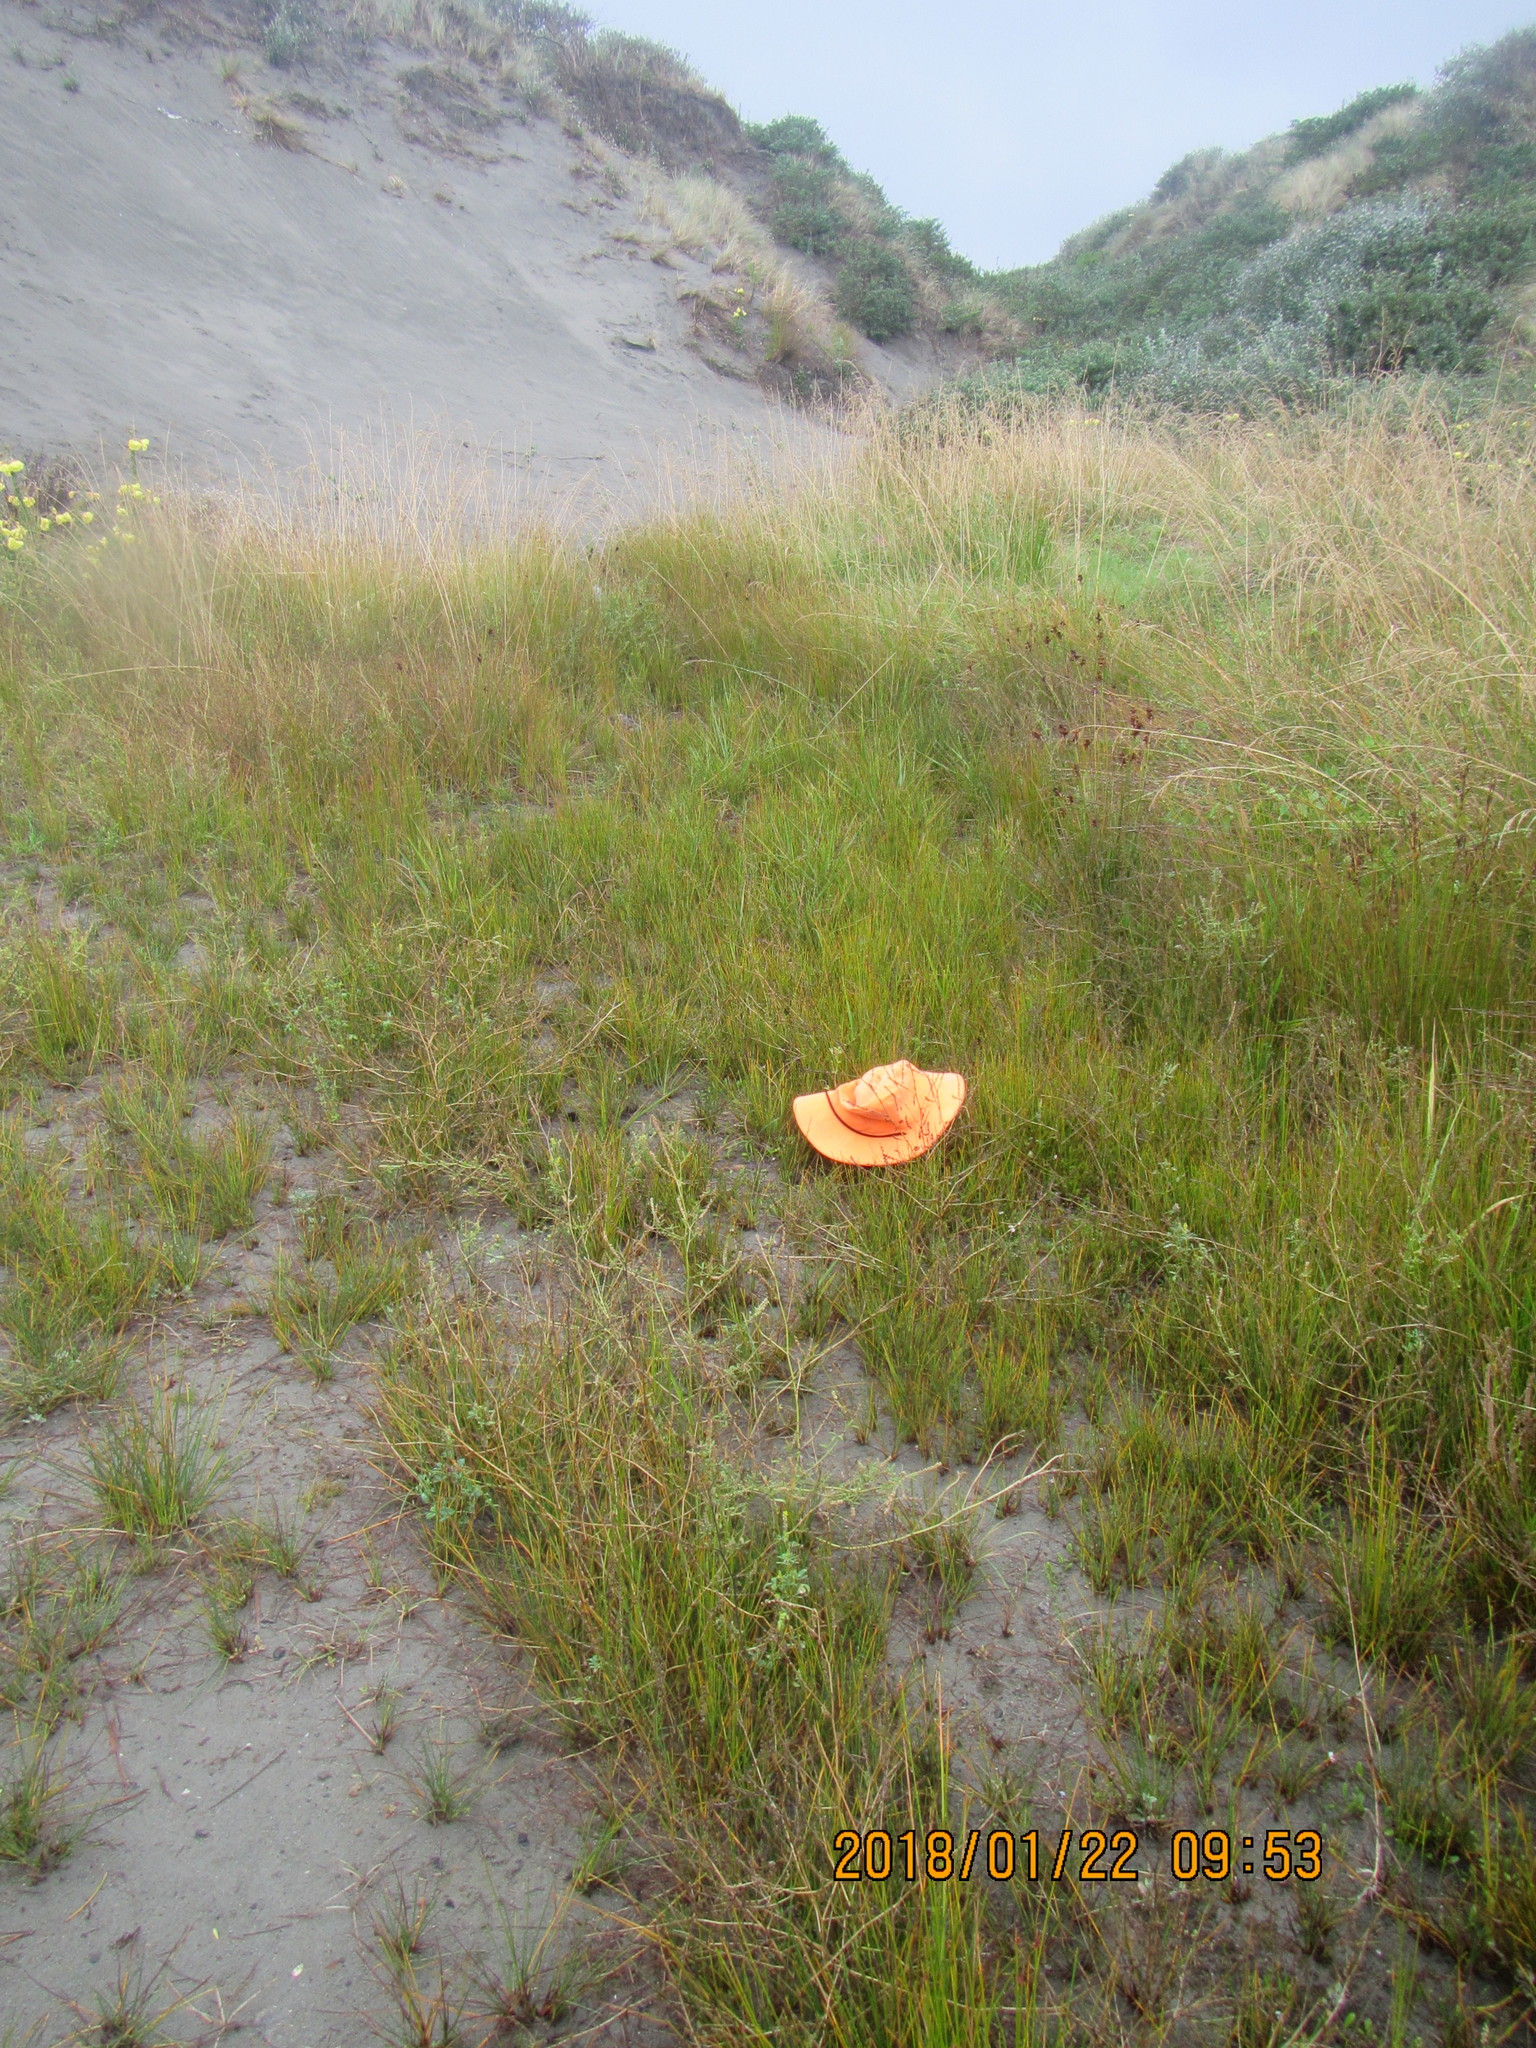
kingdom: Plantae
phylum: Tracheophyta
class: Magnoliopsida
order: Asterales
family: Goodeniaceae
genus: Goodenia
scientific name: Goodenia radicans
